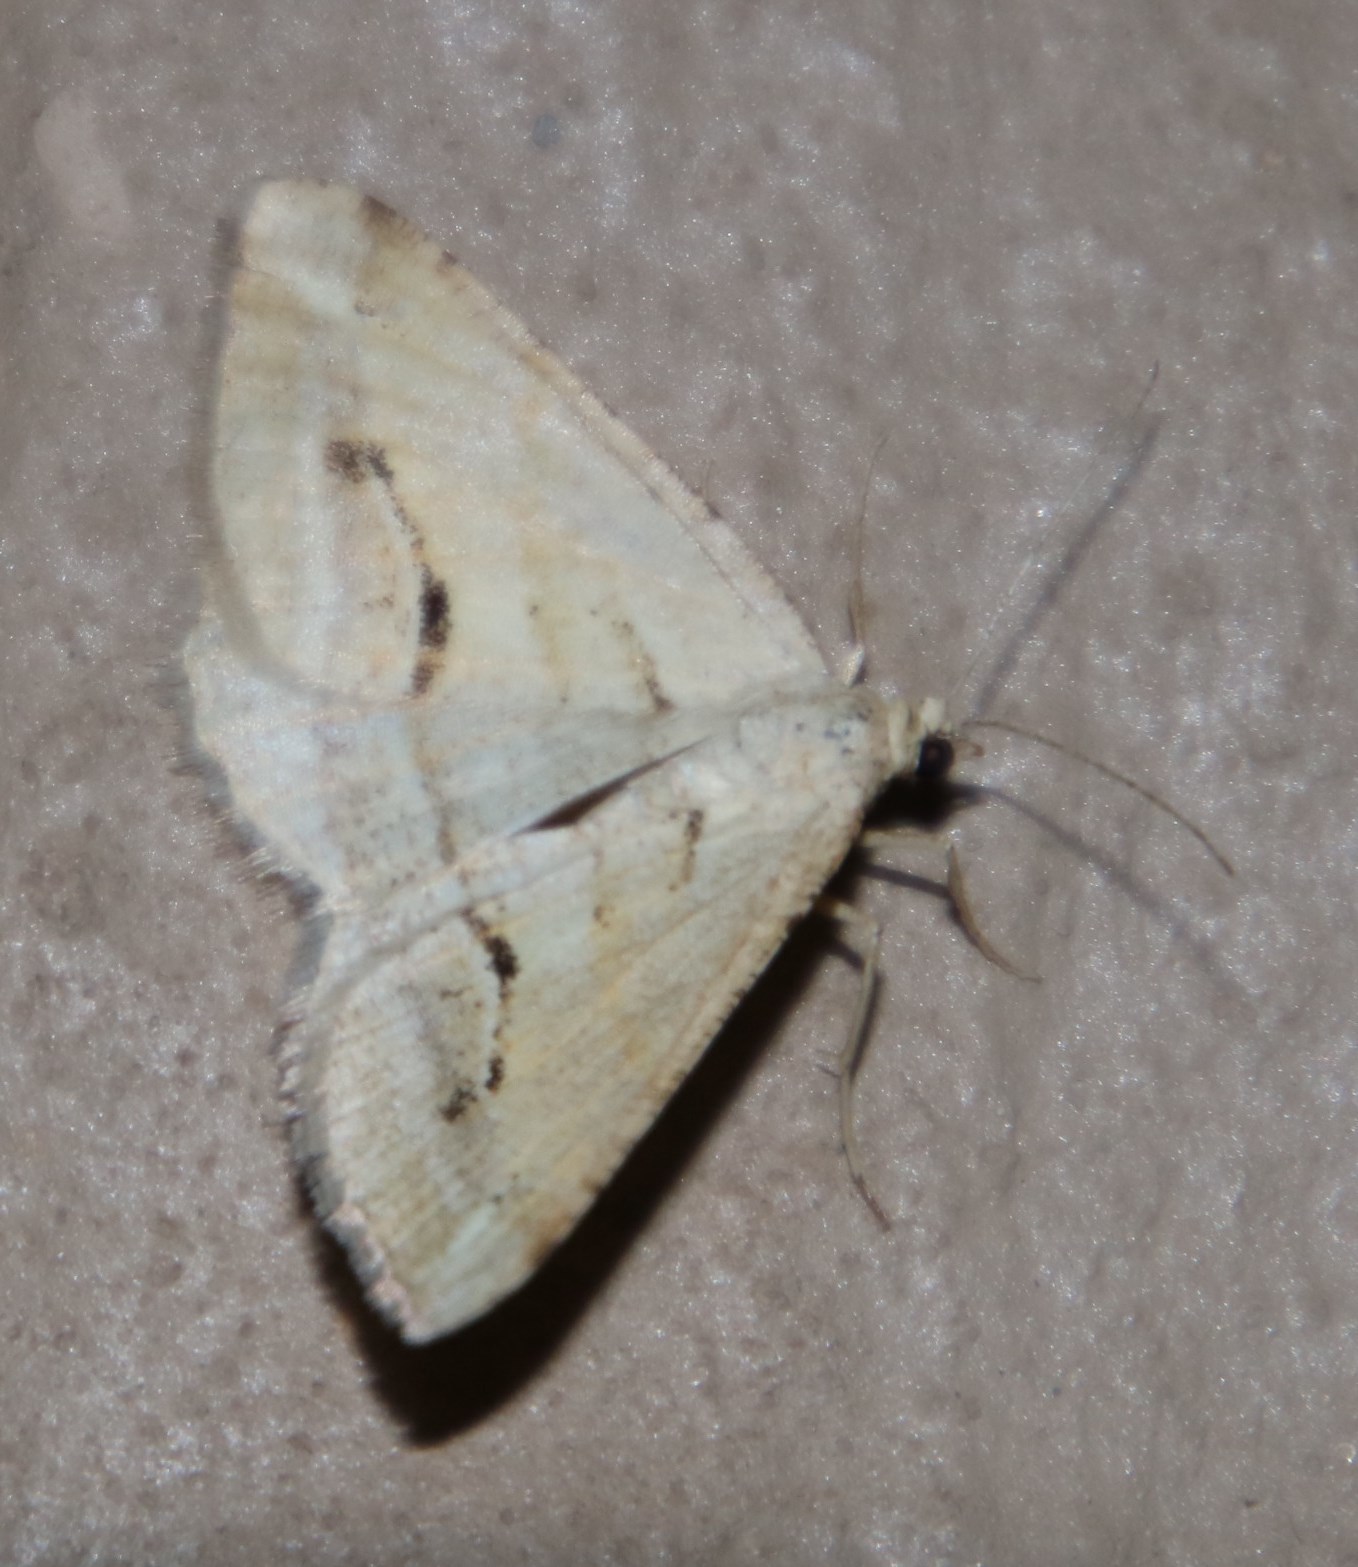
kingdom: Animalia
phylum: Arthropoda
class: Insecta
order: Lepidoptera
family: Geometridae
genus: Chiasmia
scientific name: Chiasmia subcurvaria
